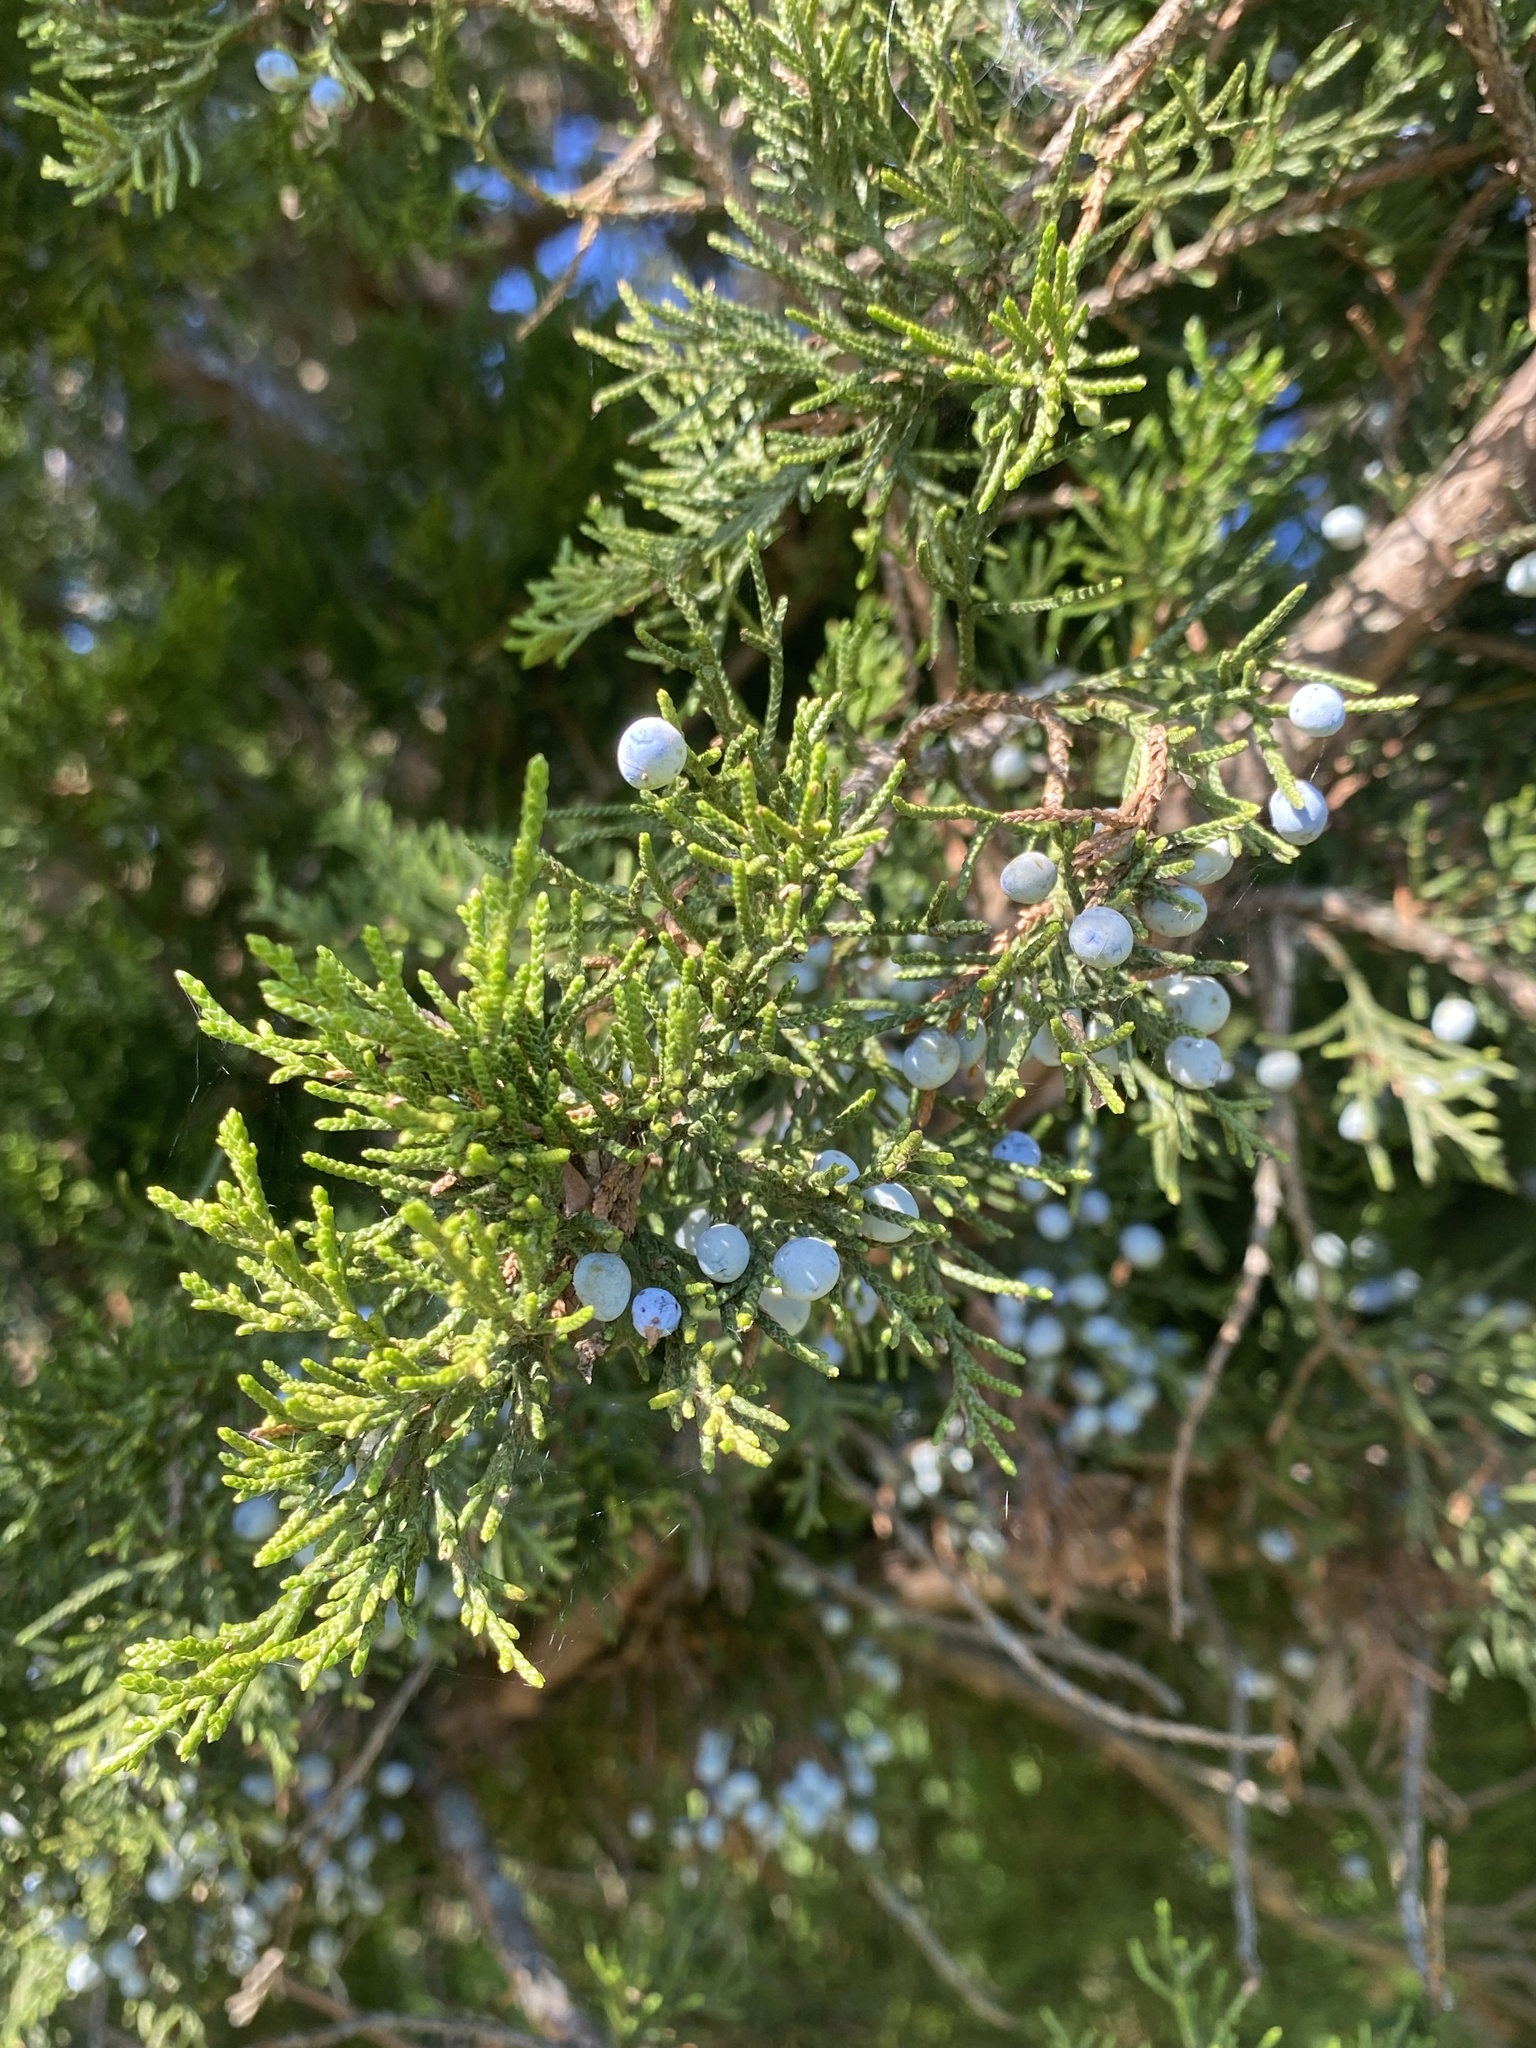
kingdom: Plantae
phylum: Tracheophyta
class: Pinopsida
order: Pinales
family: Cupressaceae
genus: Juniperus
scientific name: Juniperus virginiana
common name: Red juniper
